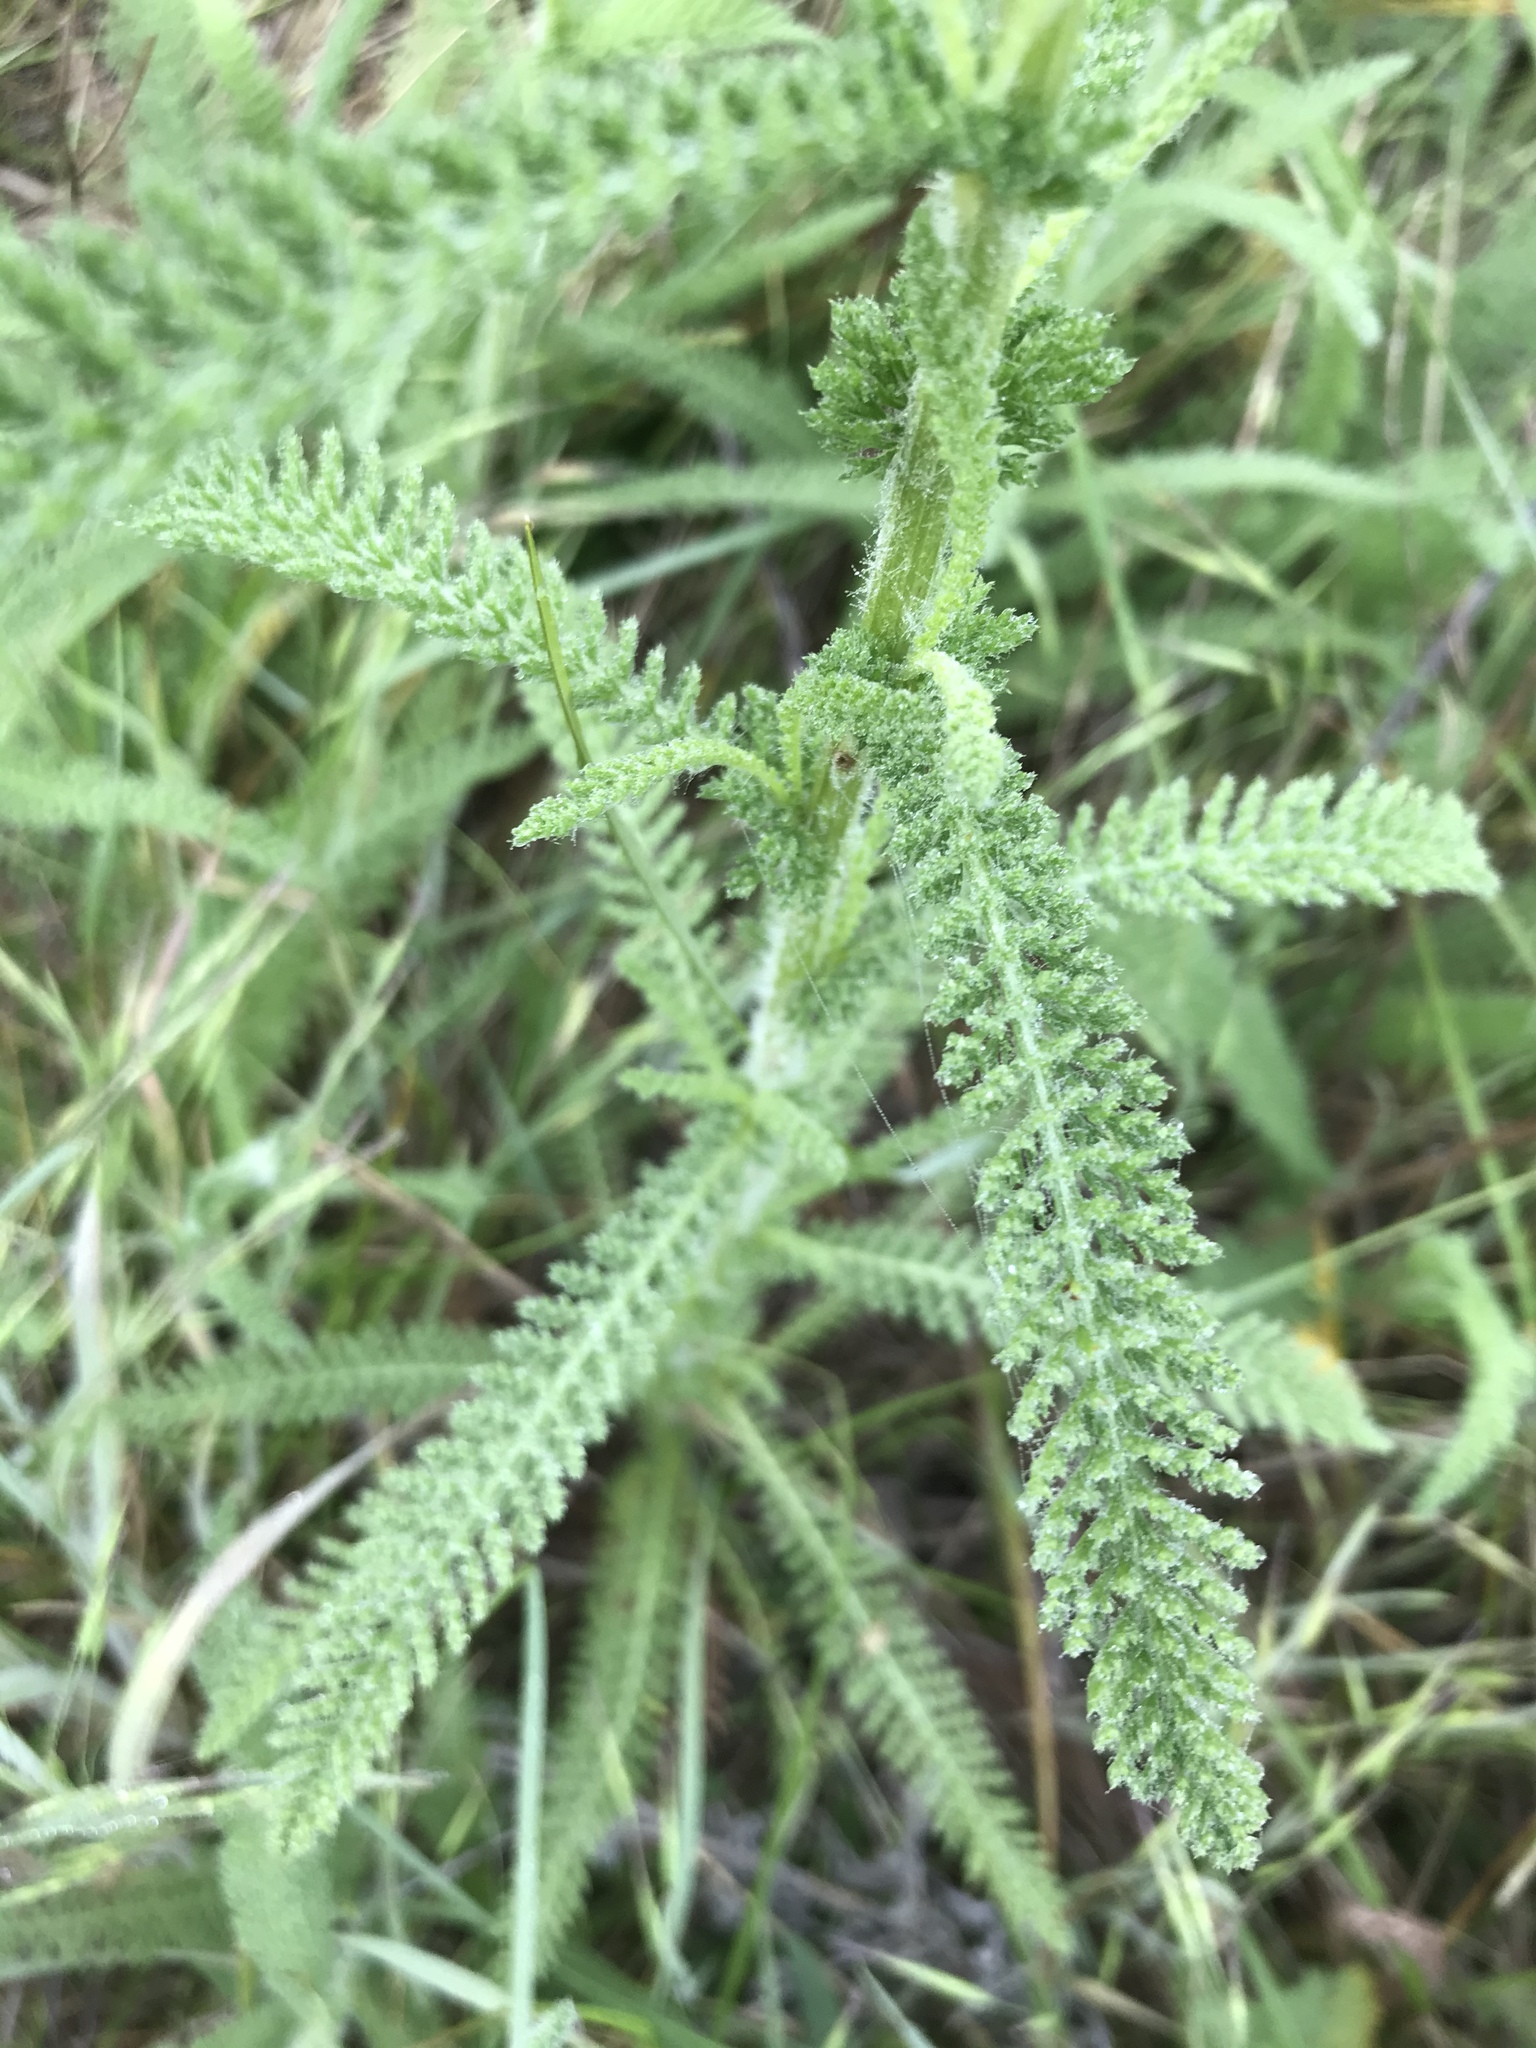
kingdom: Plantae
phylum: Tracheophyta
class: Magnoliopsida
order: Asterales
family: Asteraceae
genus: Achillea
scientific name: Achillea millefolium
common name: Yarrow
